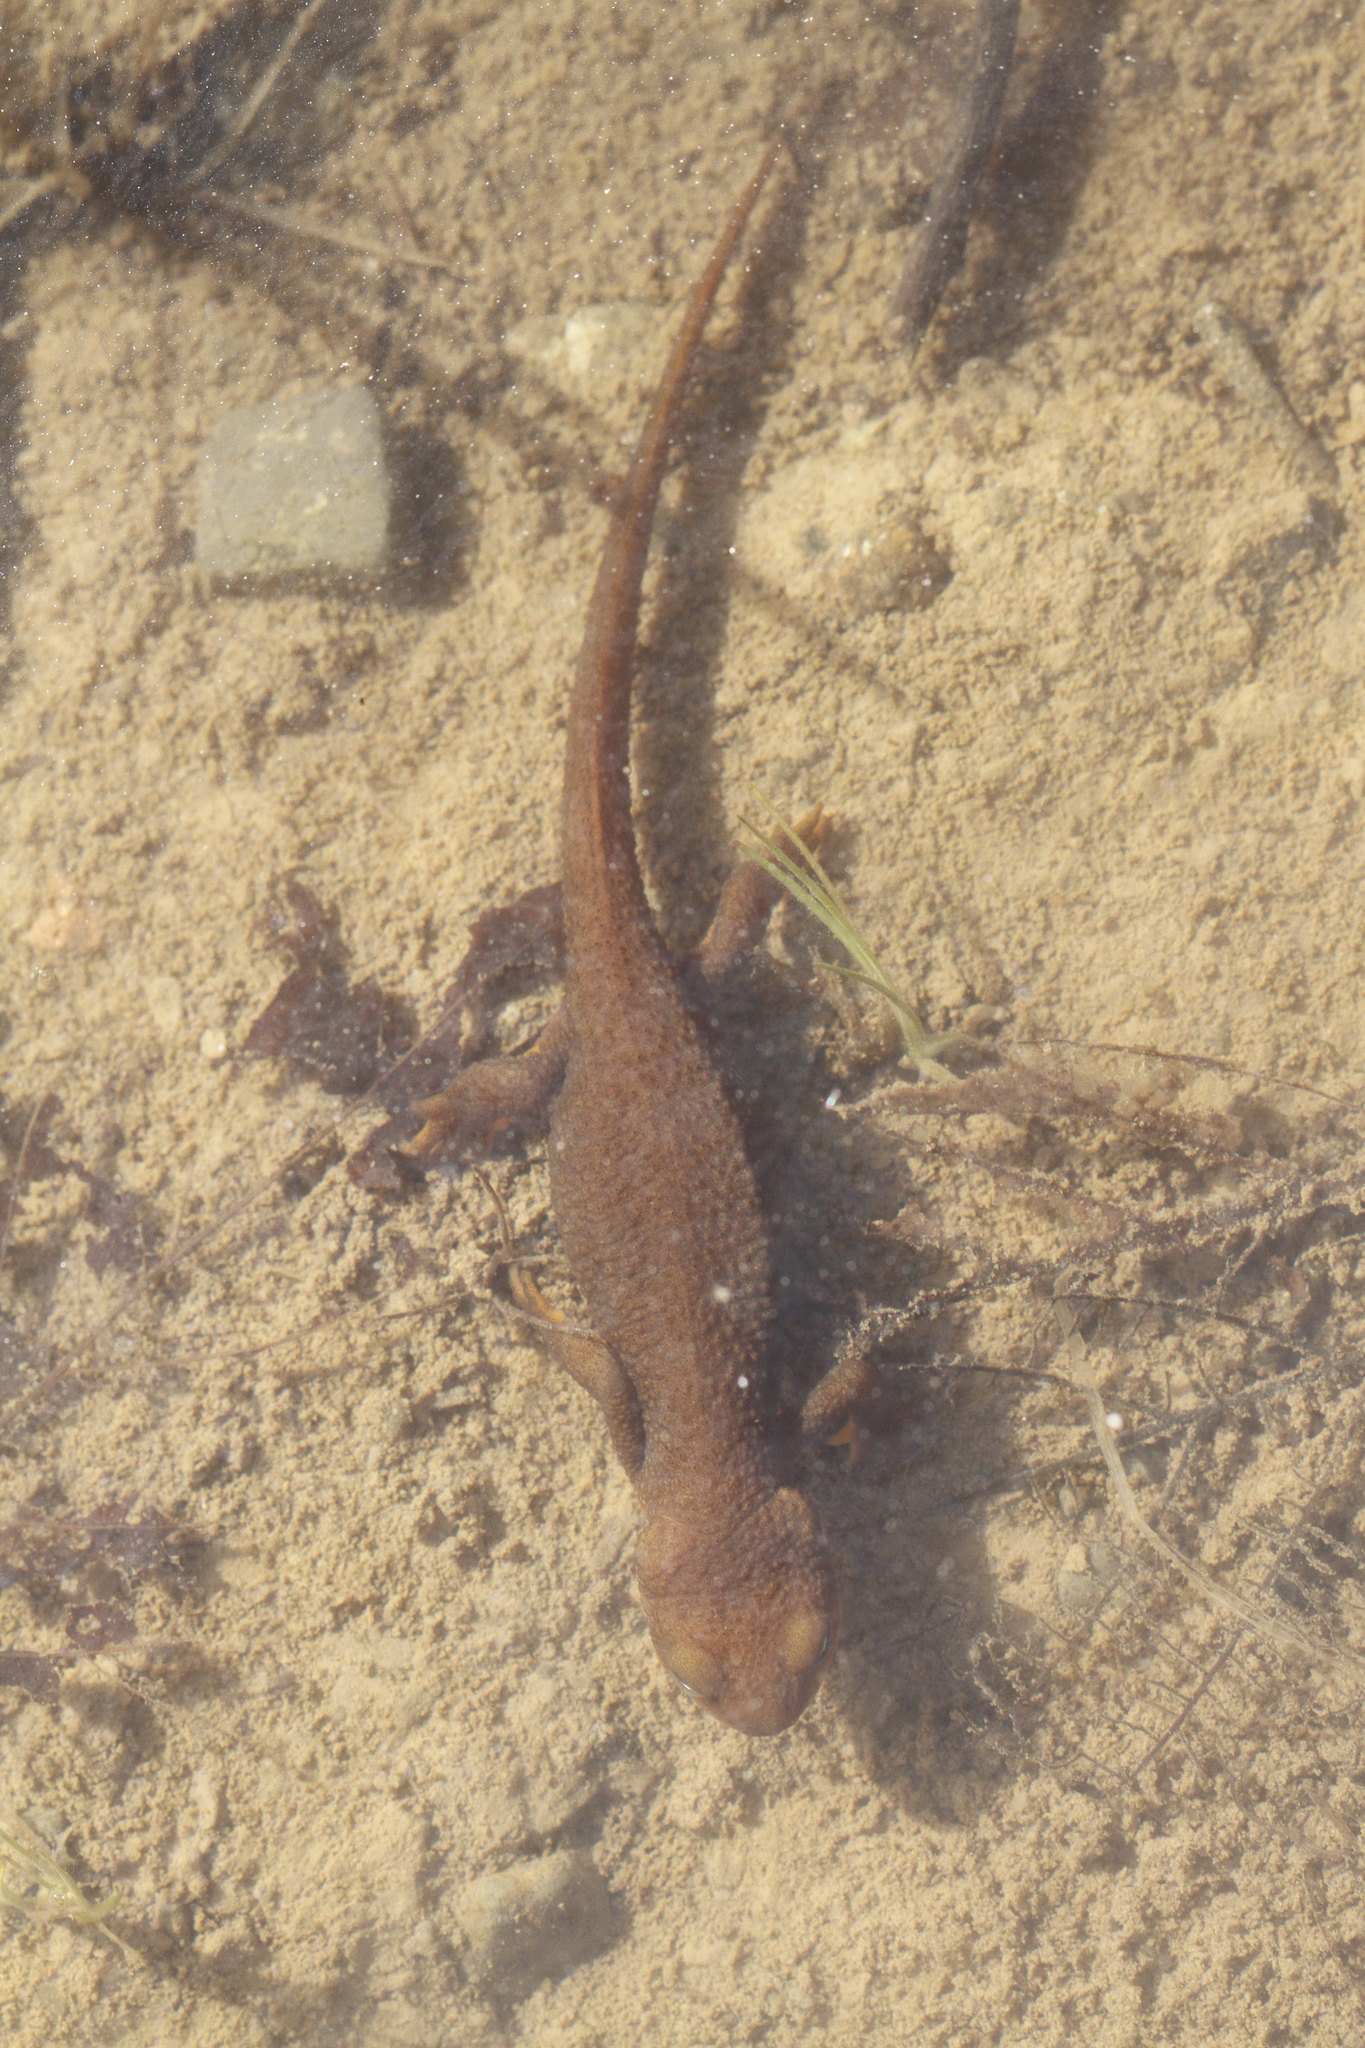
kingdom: Animalia
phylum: Chordata
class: Amphibia
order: Caudata
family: Salamandridae
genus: Taricha
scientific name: Taricha granulosa
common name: Roughskin newt
